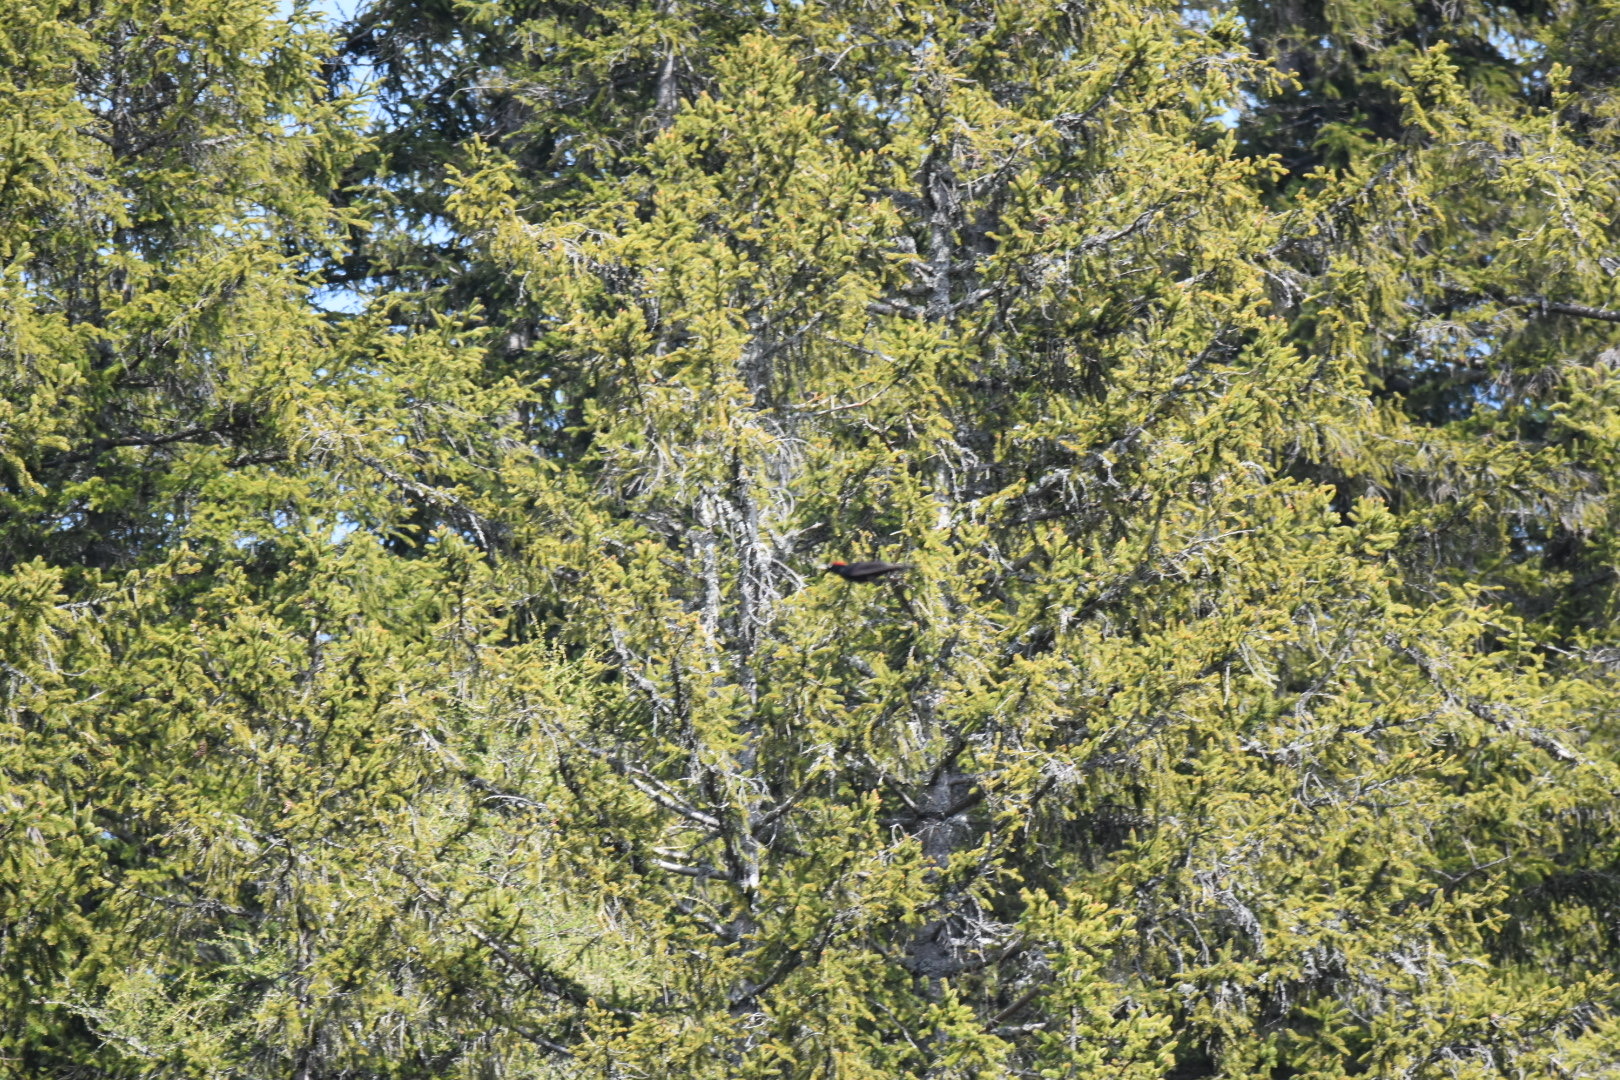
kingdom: Animalia
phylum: Chordata
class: Aves
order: Piciformes
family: Picidae
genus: Dryocopus
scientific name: Dryocopus martius
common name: Black woodpecker
